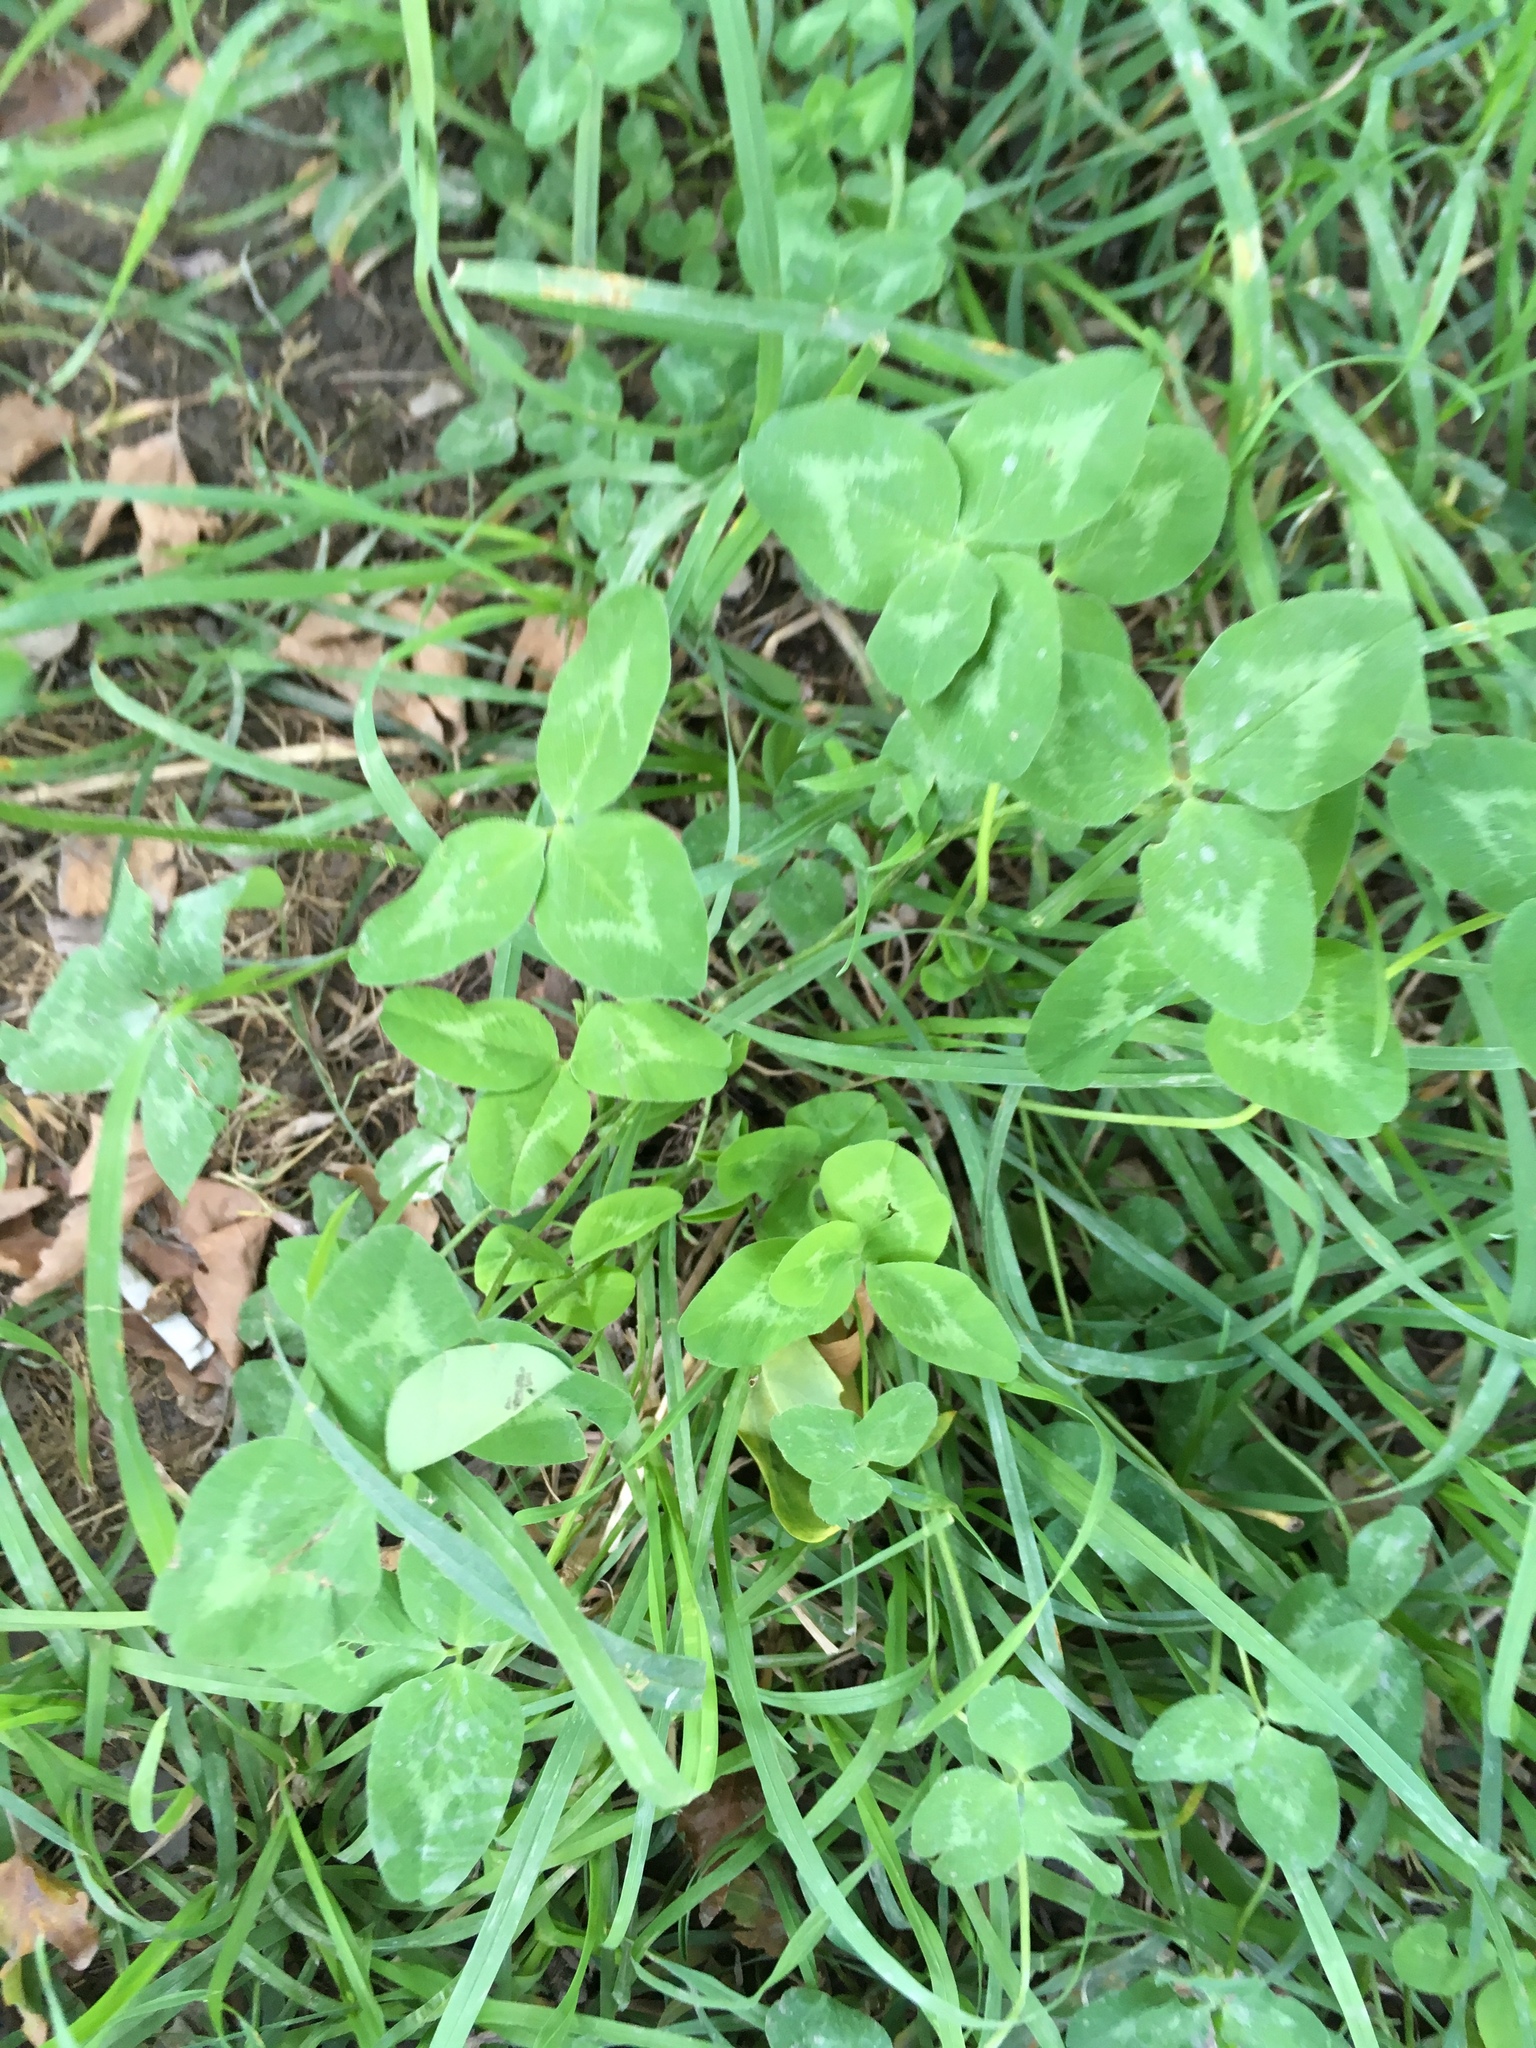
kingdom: Plantae
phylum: Tracheophyta
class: Magnoliopsida
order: Fabales
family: Fabaceae
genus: Trifolium
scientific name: Trifolium pratense
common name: Red clover
